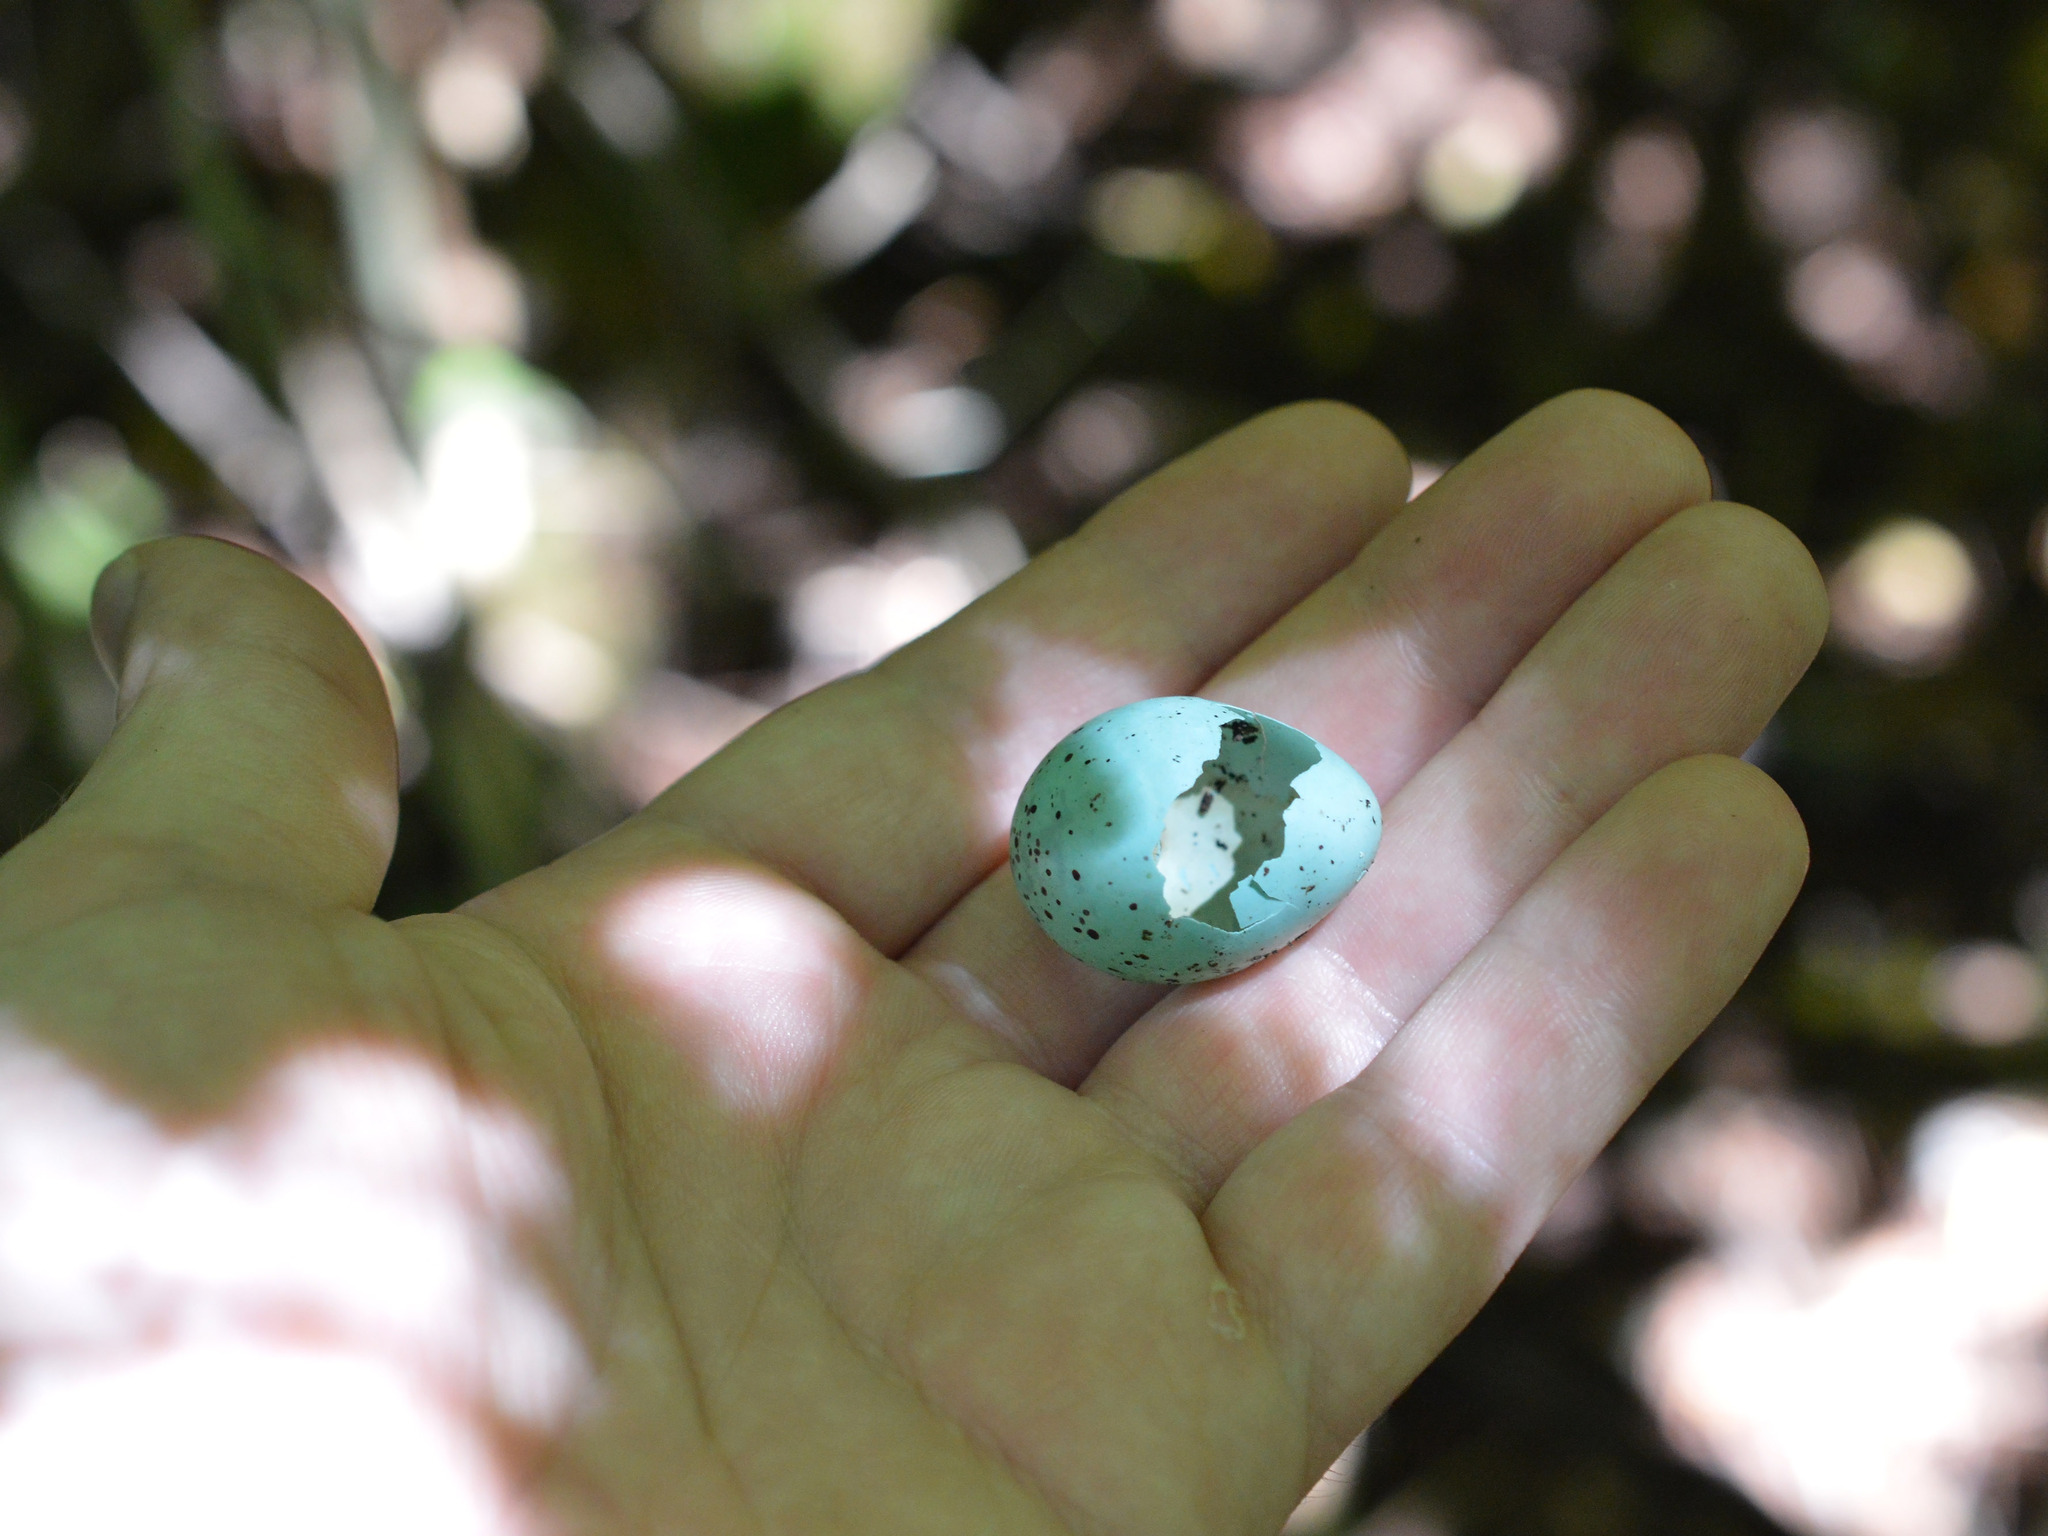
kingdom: Animalia
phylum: Chordata
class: Aves
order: Passeriformes
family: Turdidae
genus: Turdus
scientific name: Turdus philomelos
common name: Song thrush
